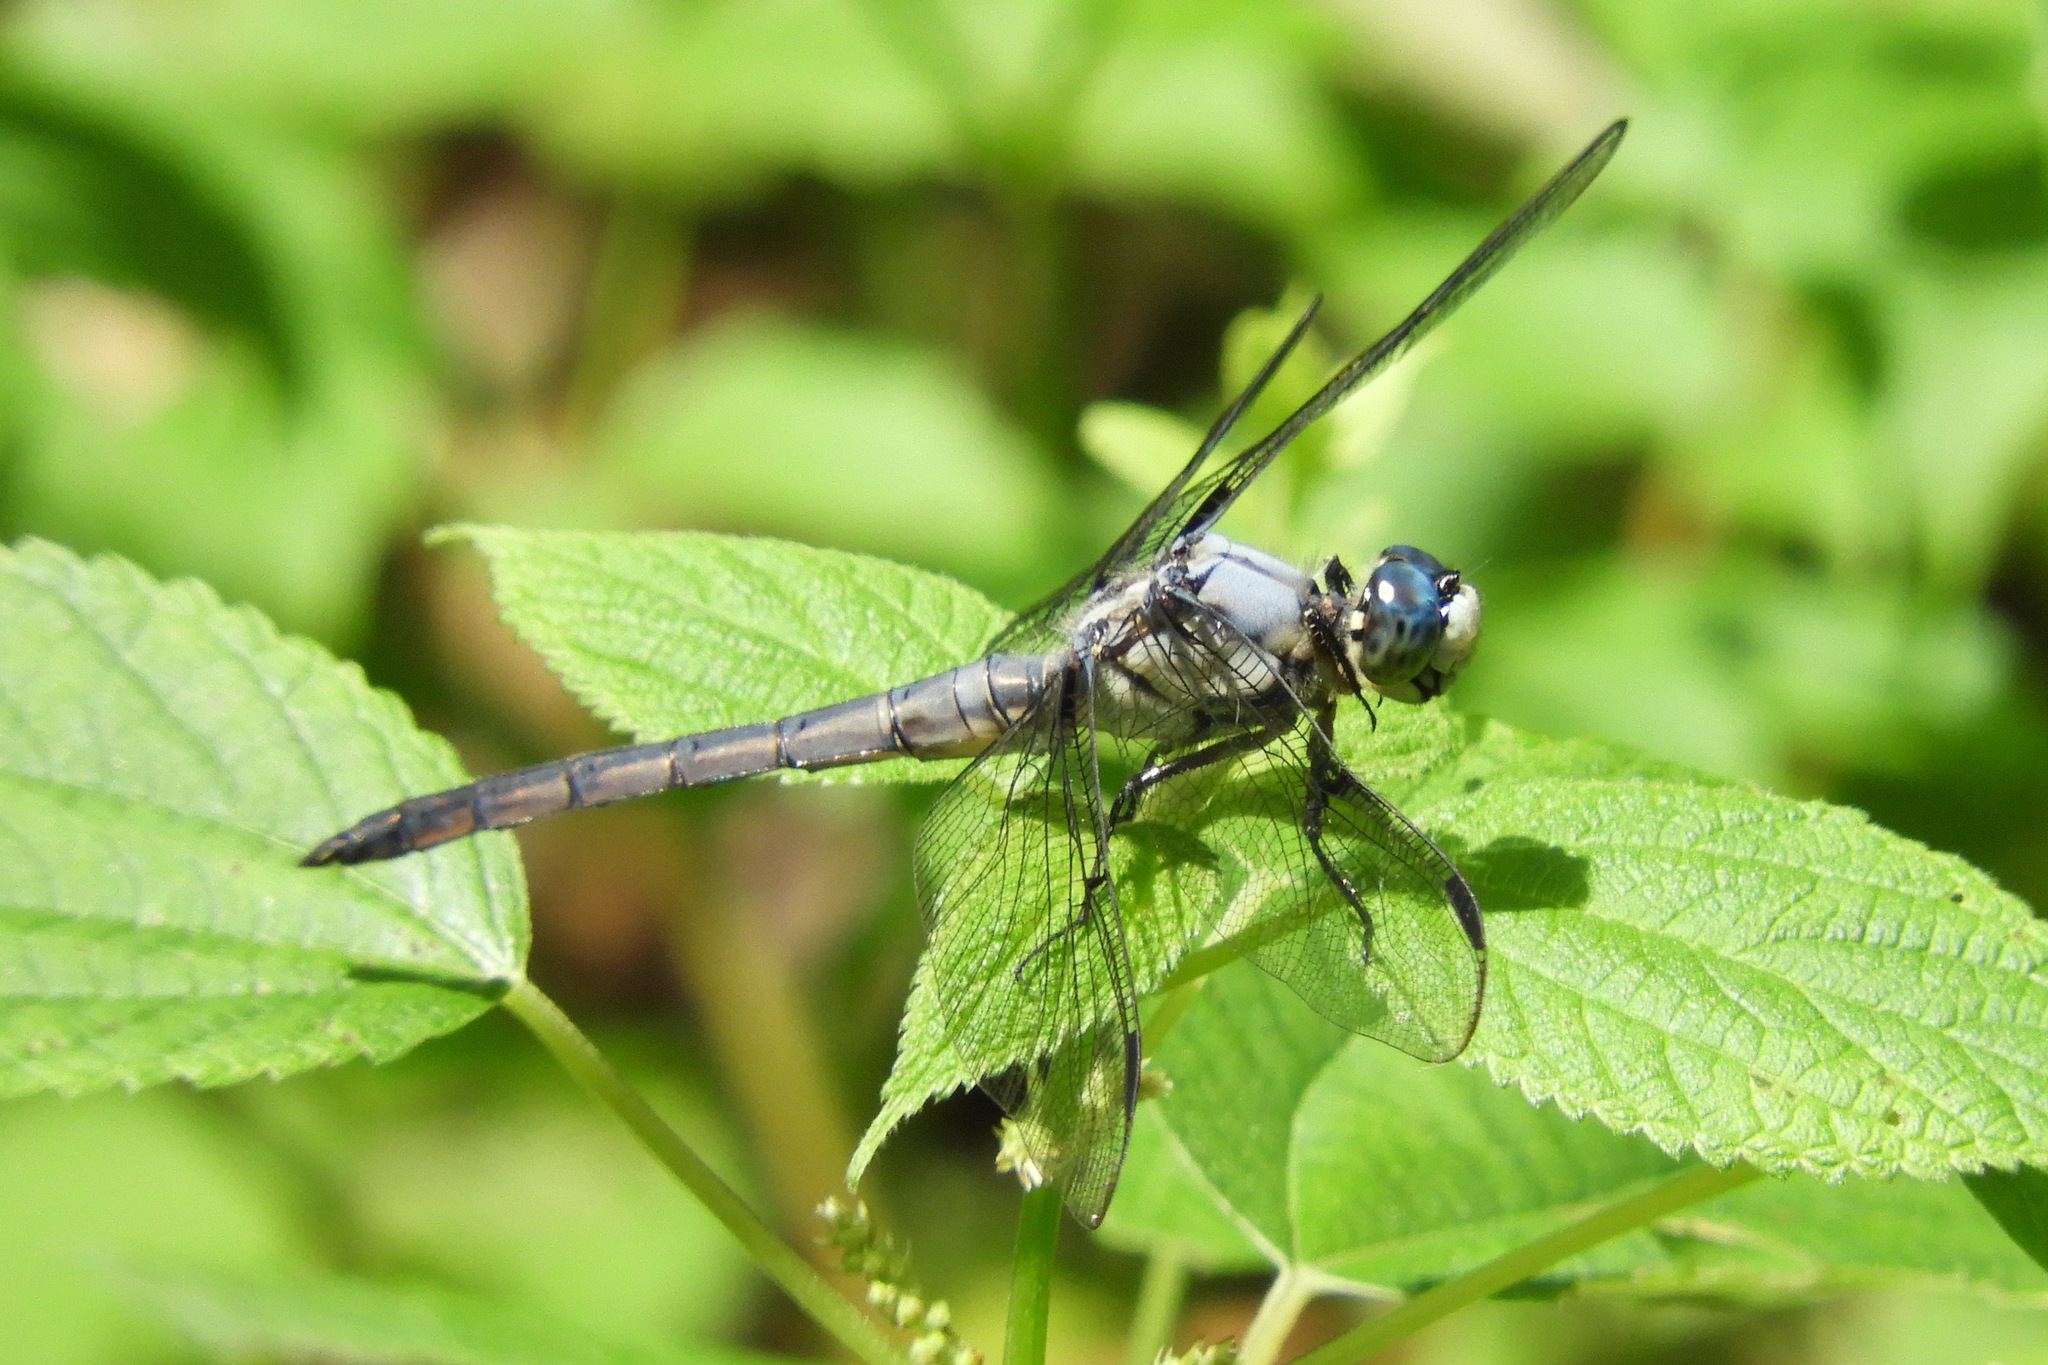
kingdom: Animalia
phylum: Arthropoda
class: Insecta
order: Odonata
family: Libellulidae
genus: Libellula
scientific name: Libellula vibrans
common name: Great blue skimmer
